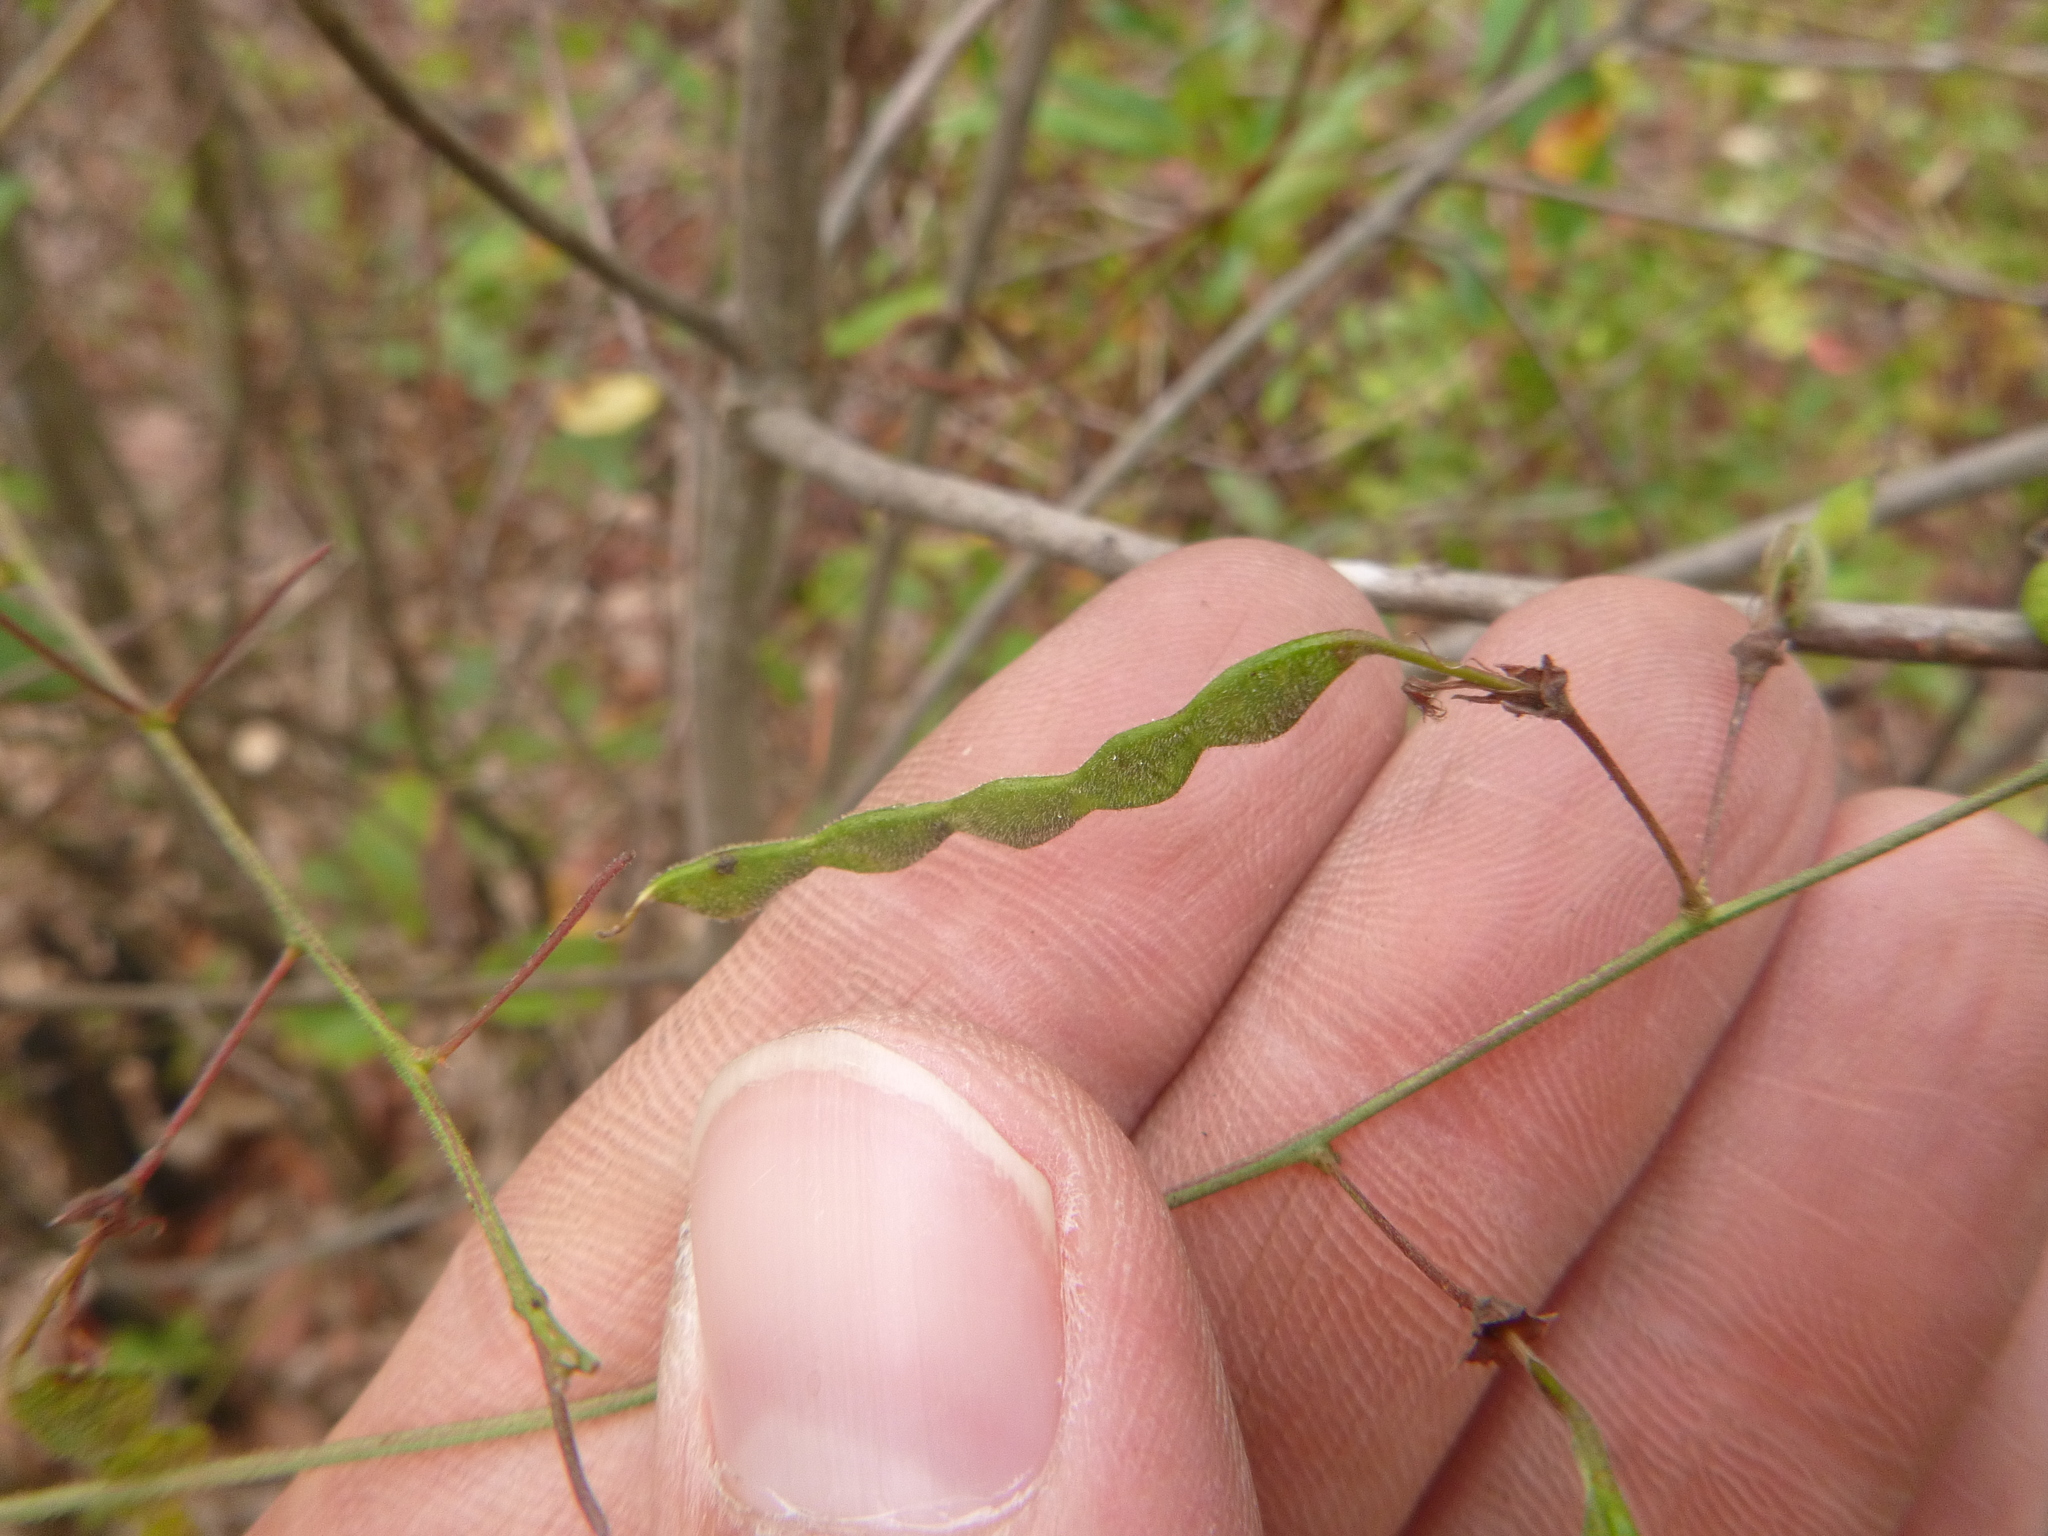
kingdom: Plantae
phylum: Tracheophyta
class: Magnoliopsida
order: Fabales
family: Fabaceae
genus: Desmodium
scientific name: Desmodium laevigatum
